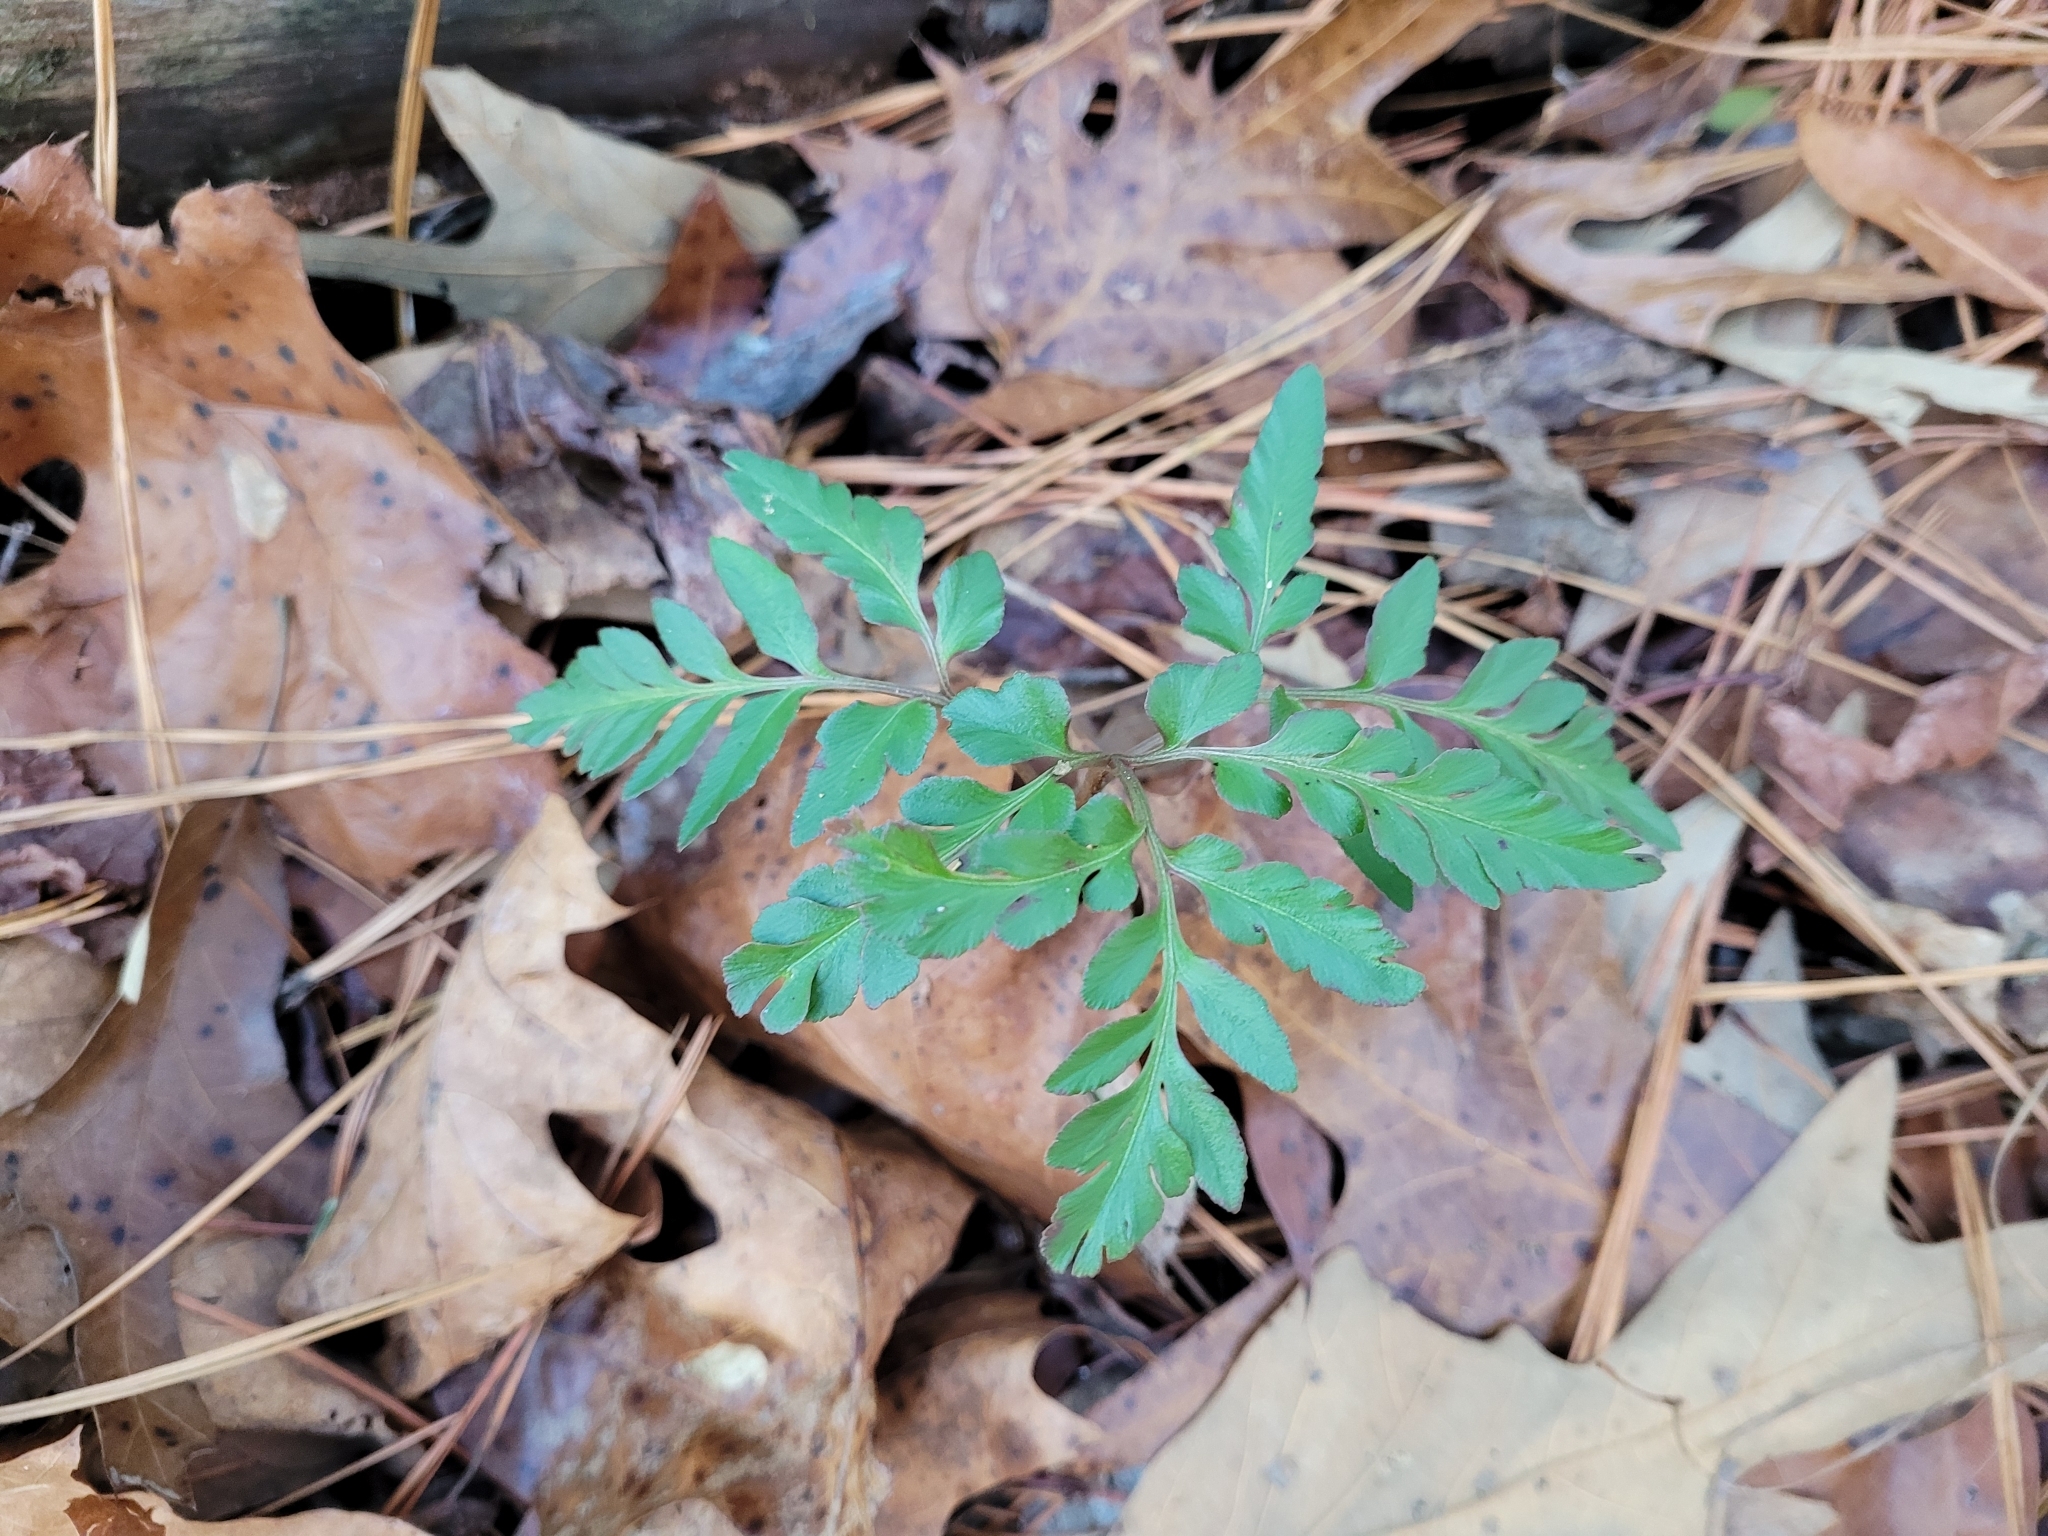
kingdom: Plantae
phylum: Tracheophyta
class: Polypodiopsida
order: Ophioglossales
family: Ophioglossaceae
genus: Sceptridium
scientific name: Sceptridium dissectum
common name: Cut-leaved grapefern
